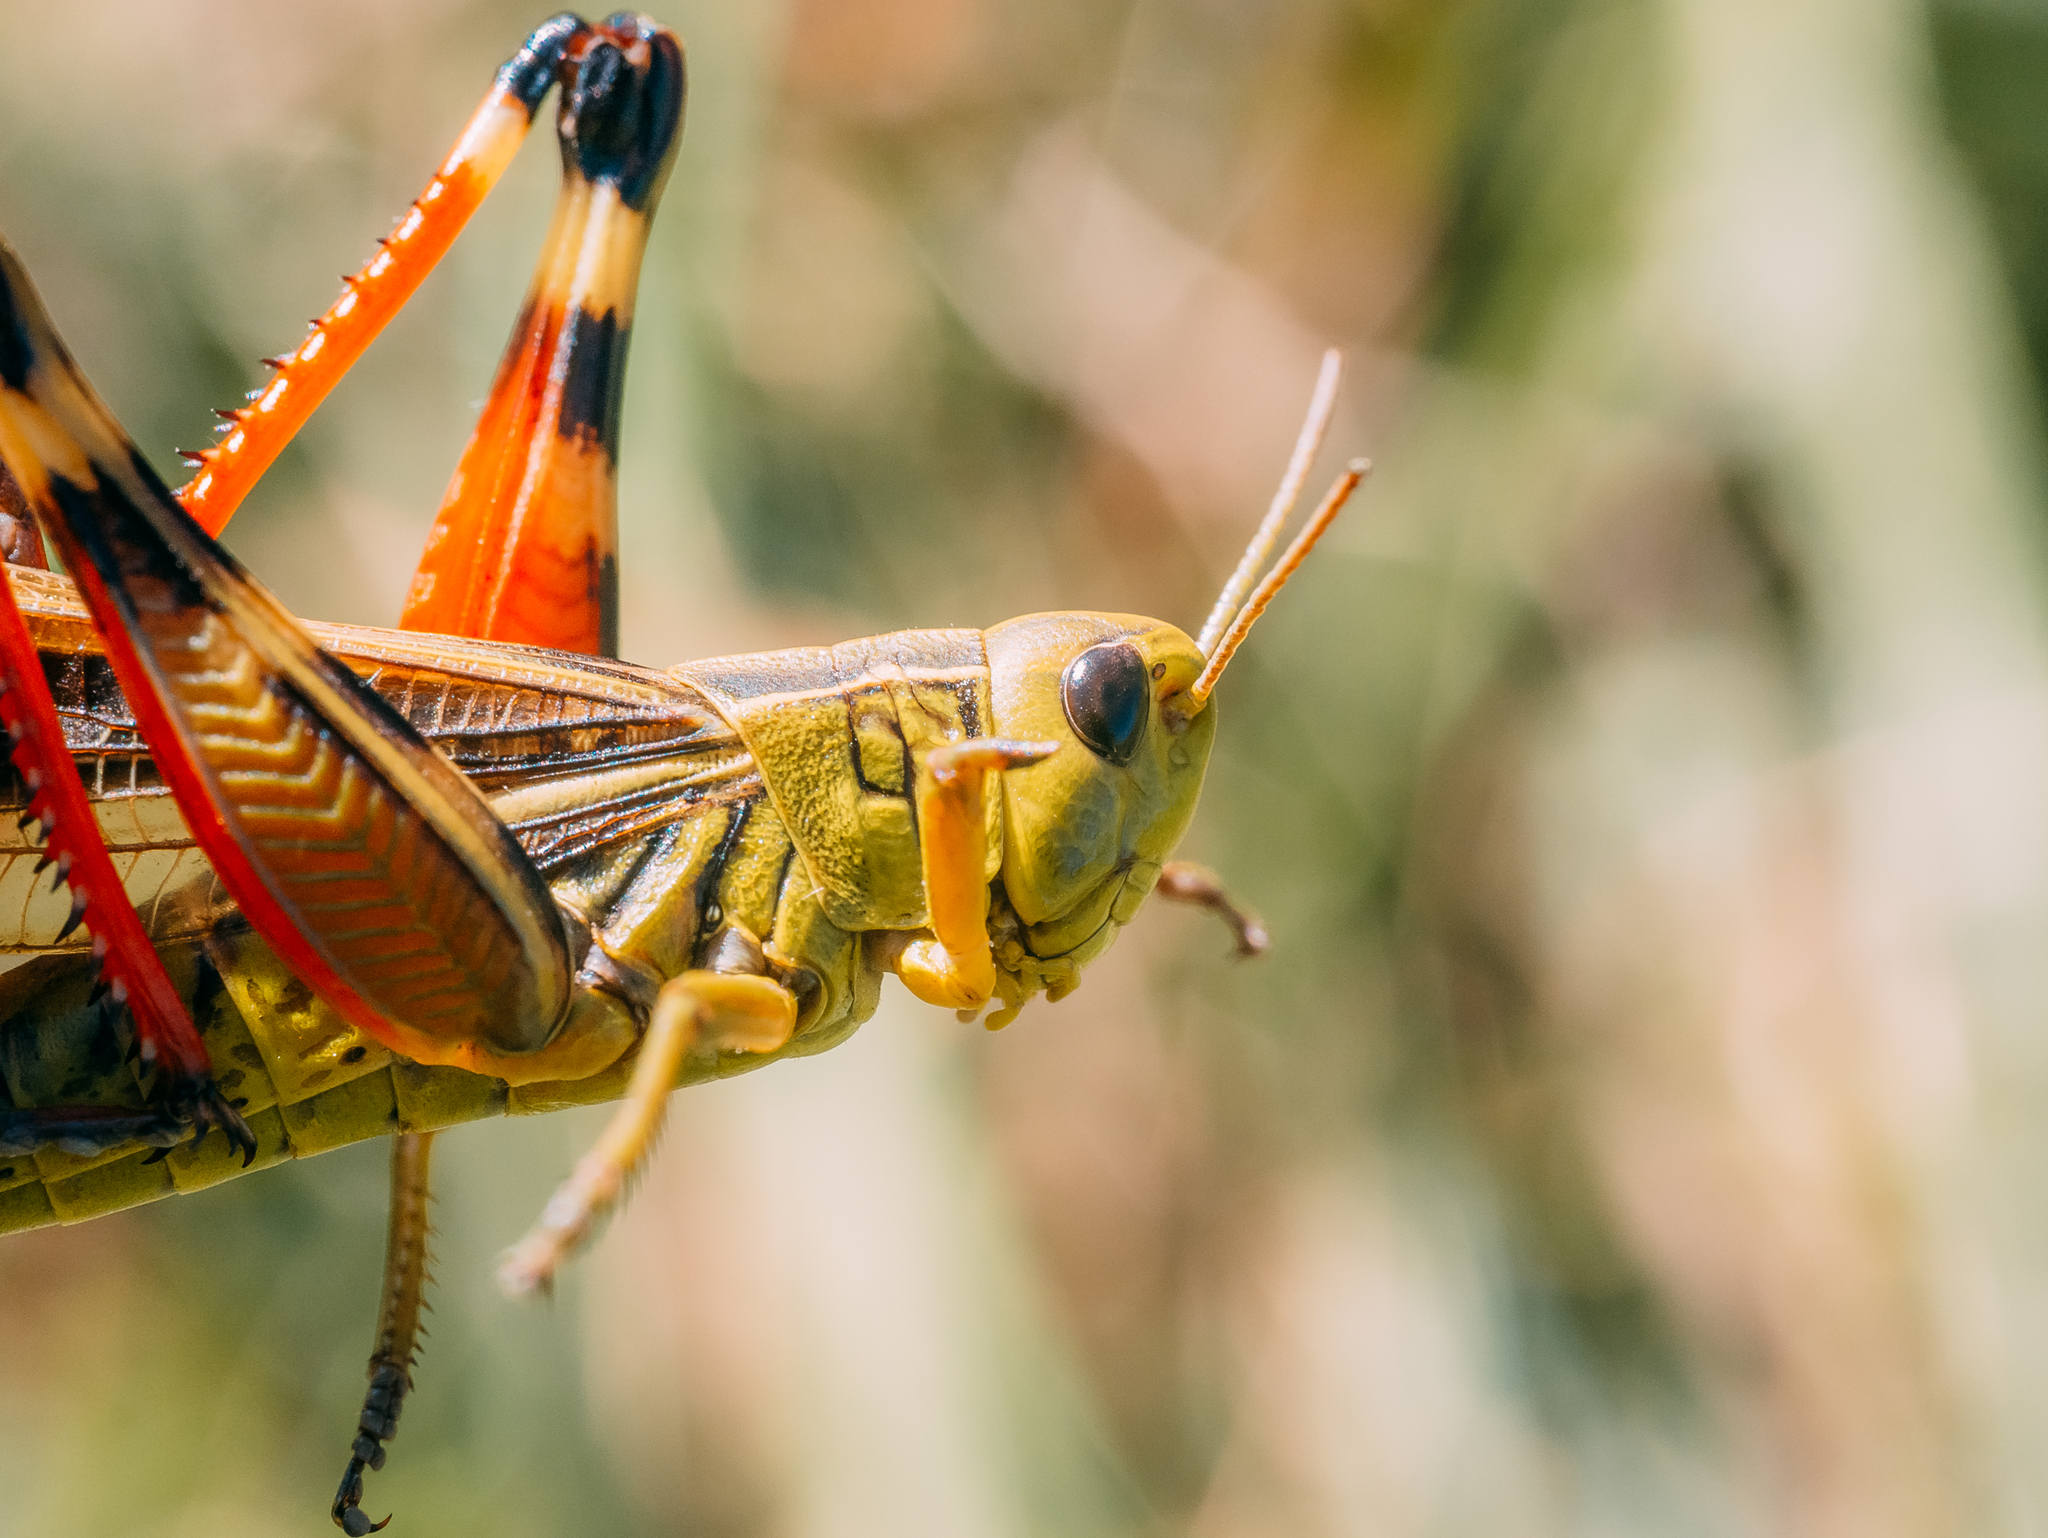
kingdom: Animalia
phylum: Arthropoda
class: Insecta
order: Orthoptera
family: Acrididae
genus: Arcyptera
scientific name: Arcyptera fusca
